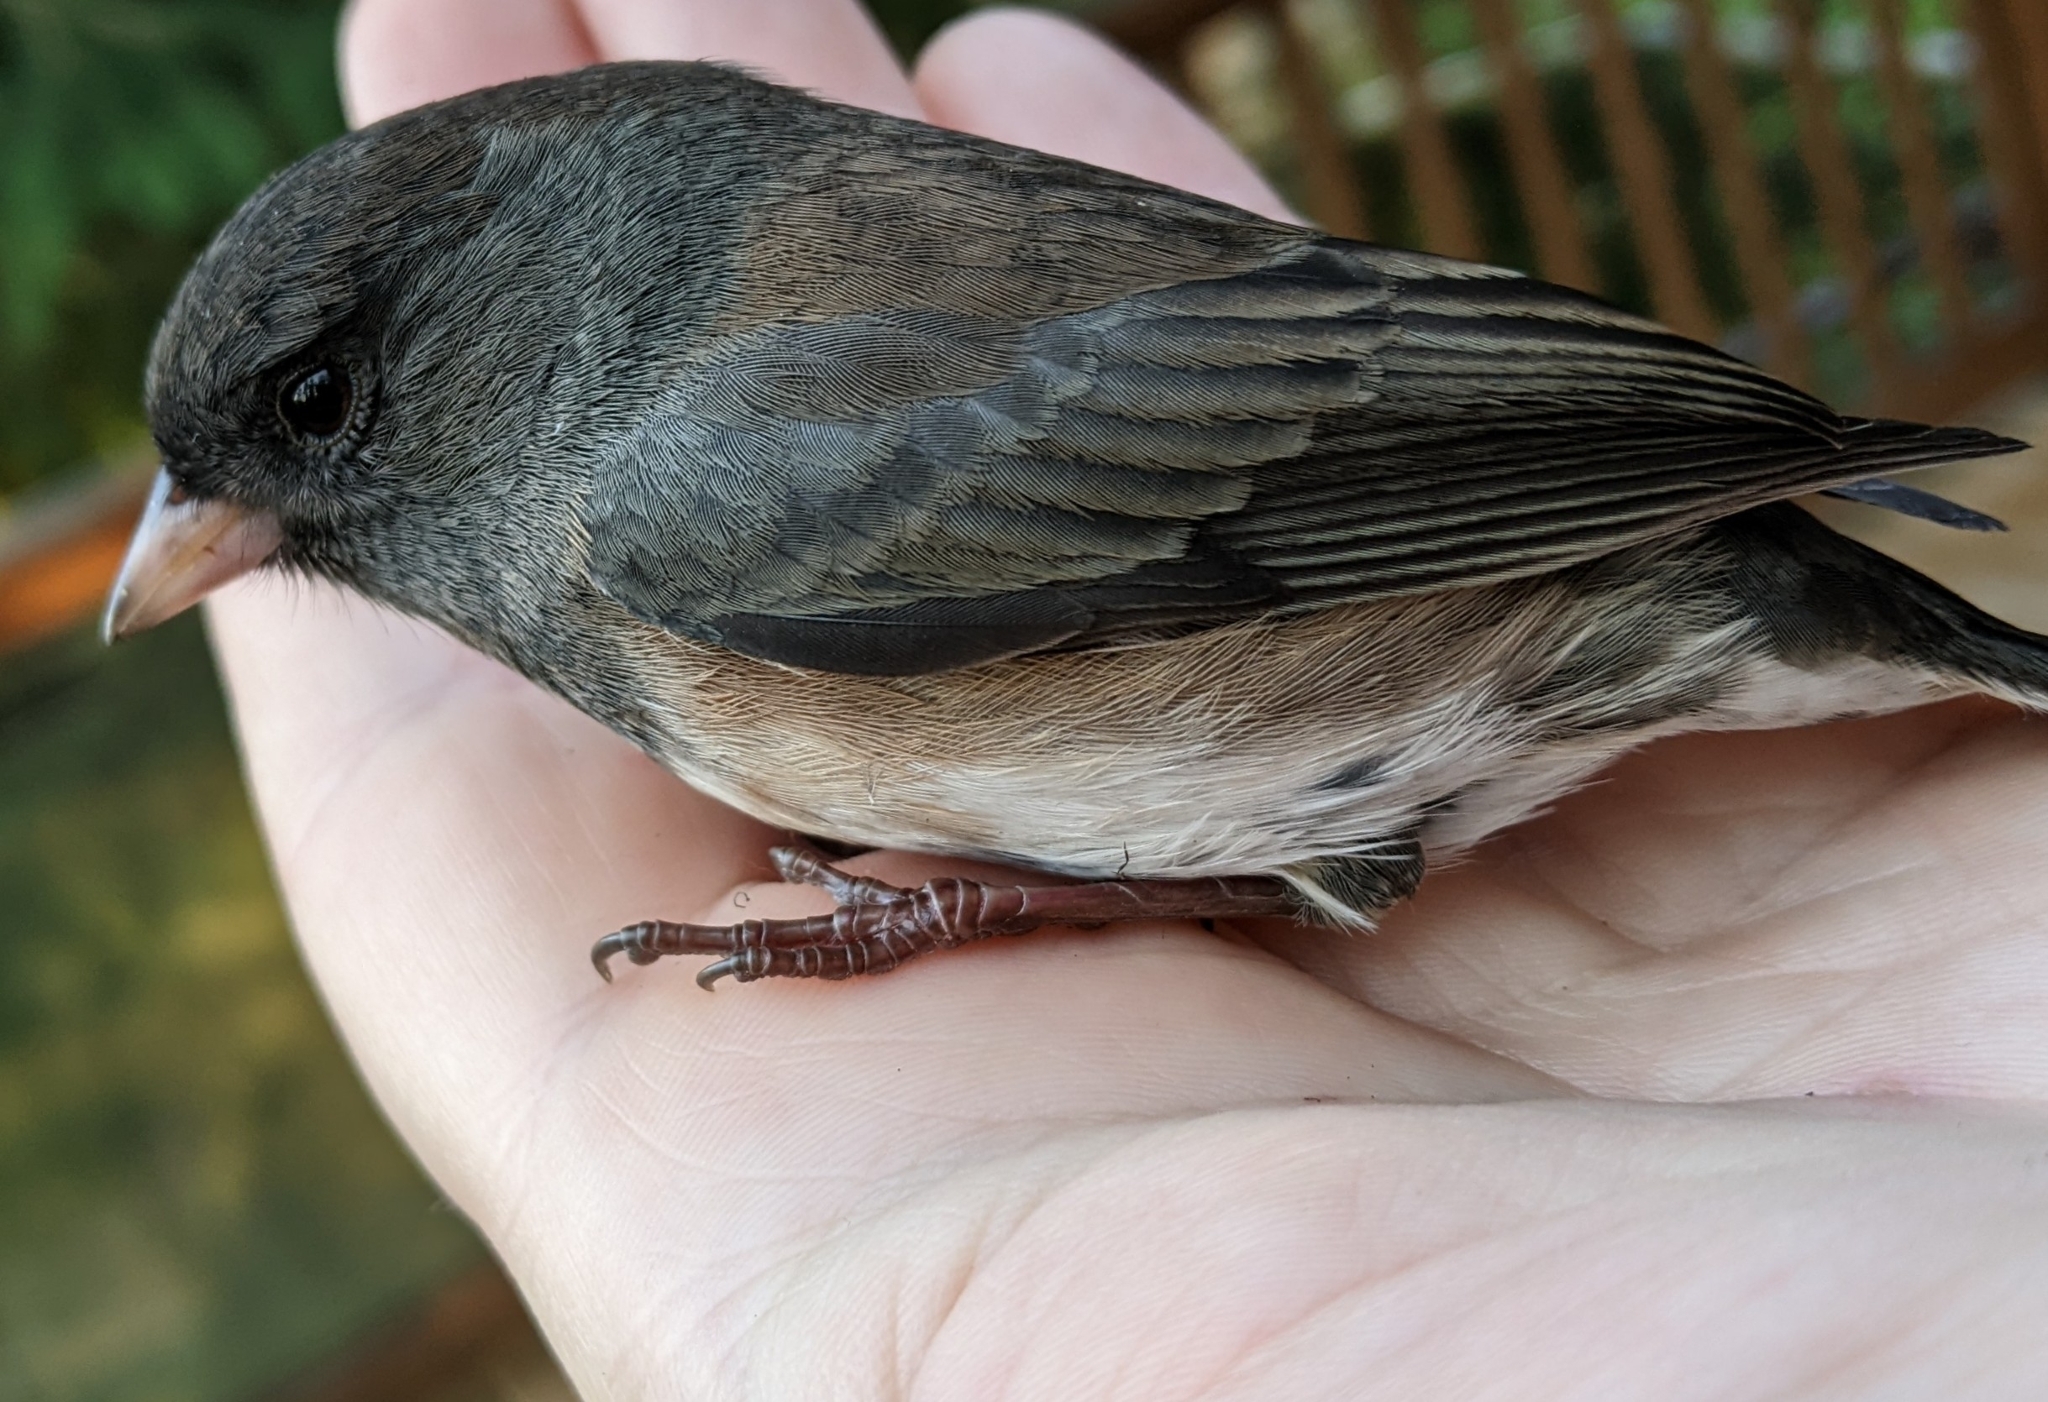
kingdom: Animalia
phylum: Chordata
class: Aves
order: Passeriformes
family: Passerellidae
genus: Junco
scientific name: Junco hyemalis
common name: Dark-eyed junco
